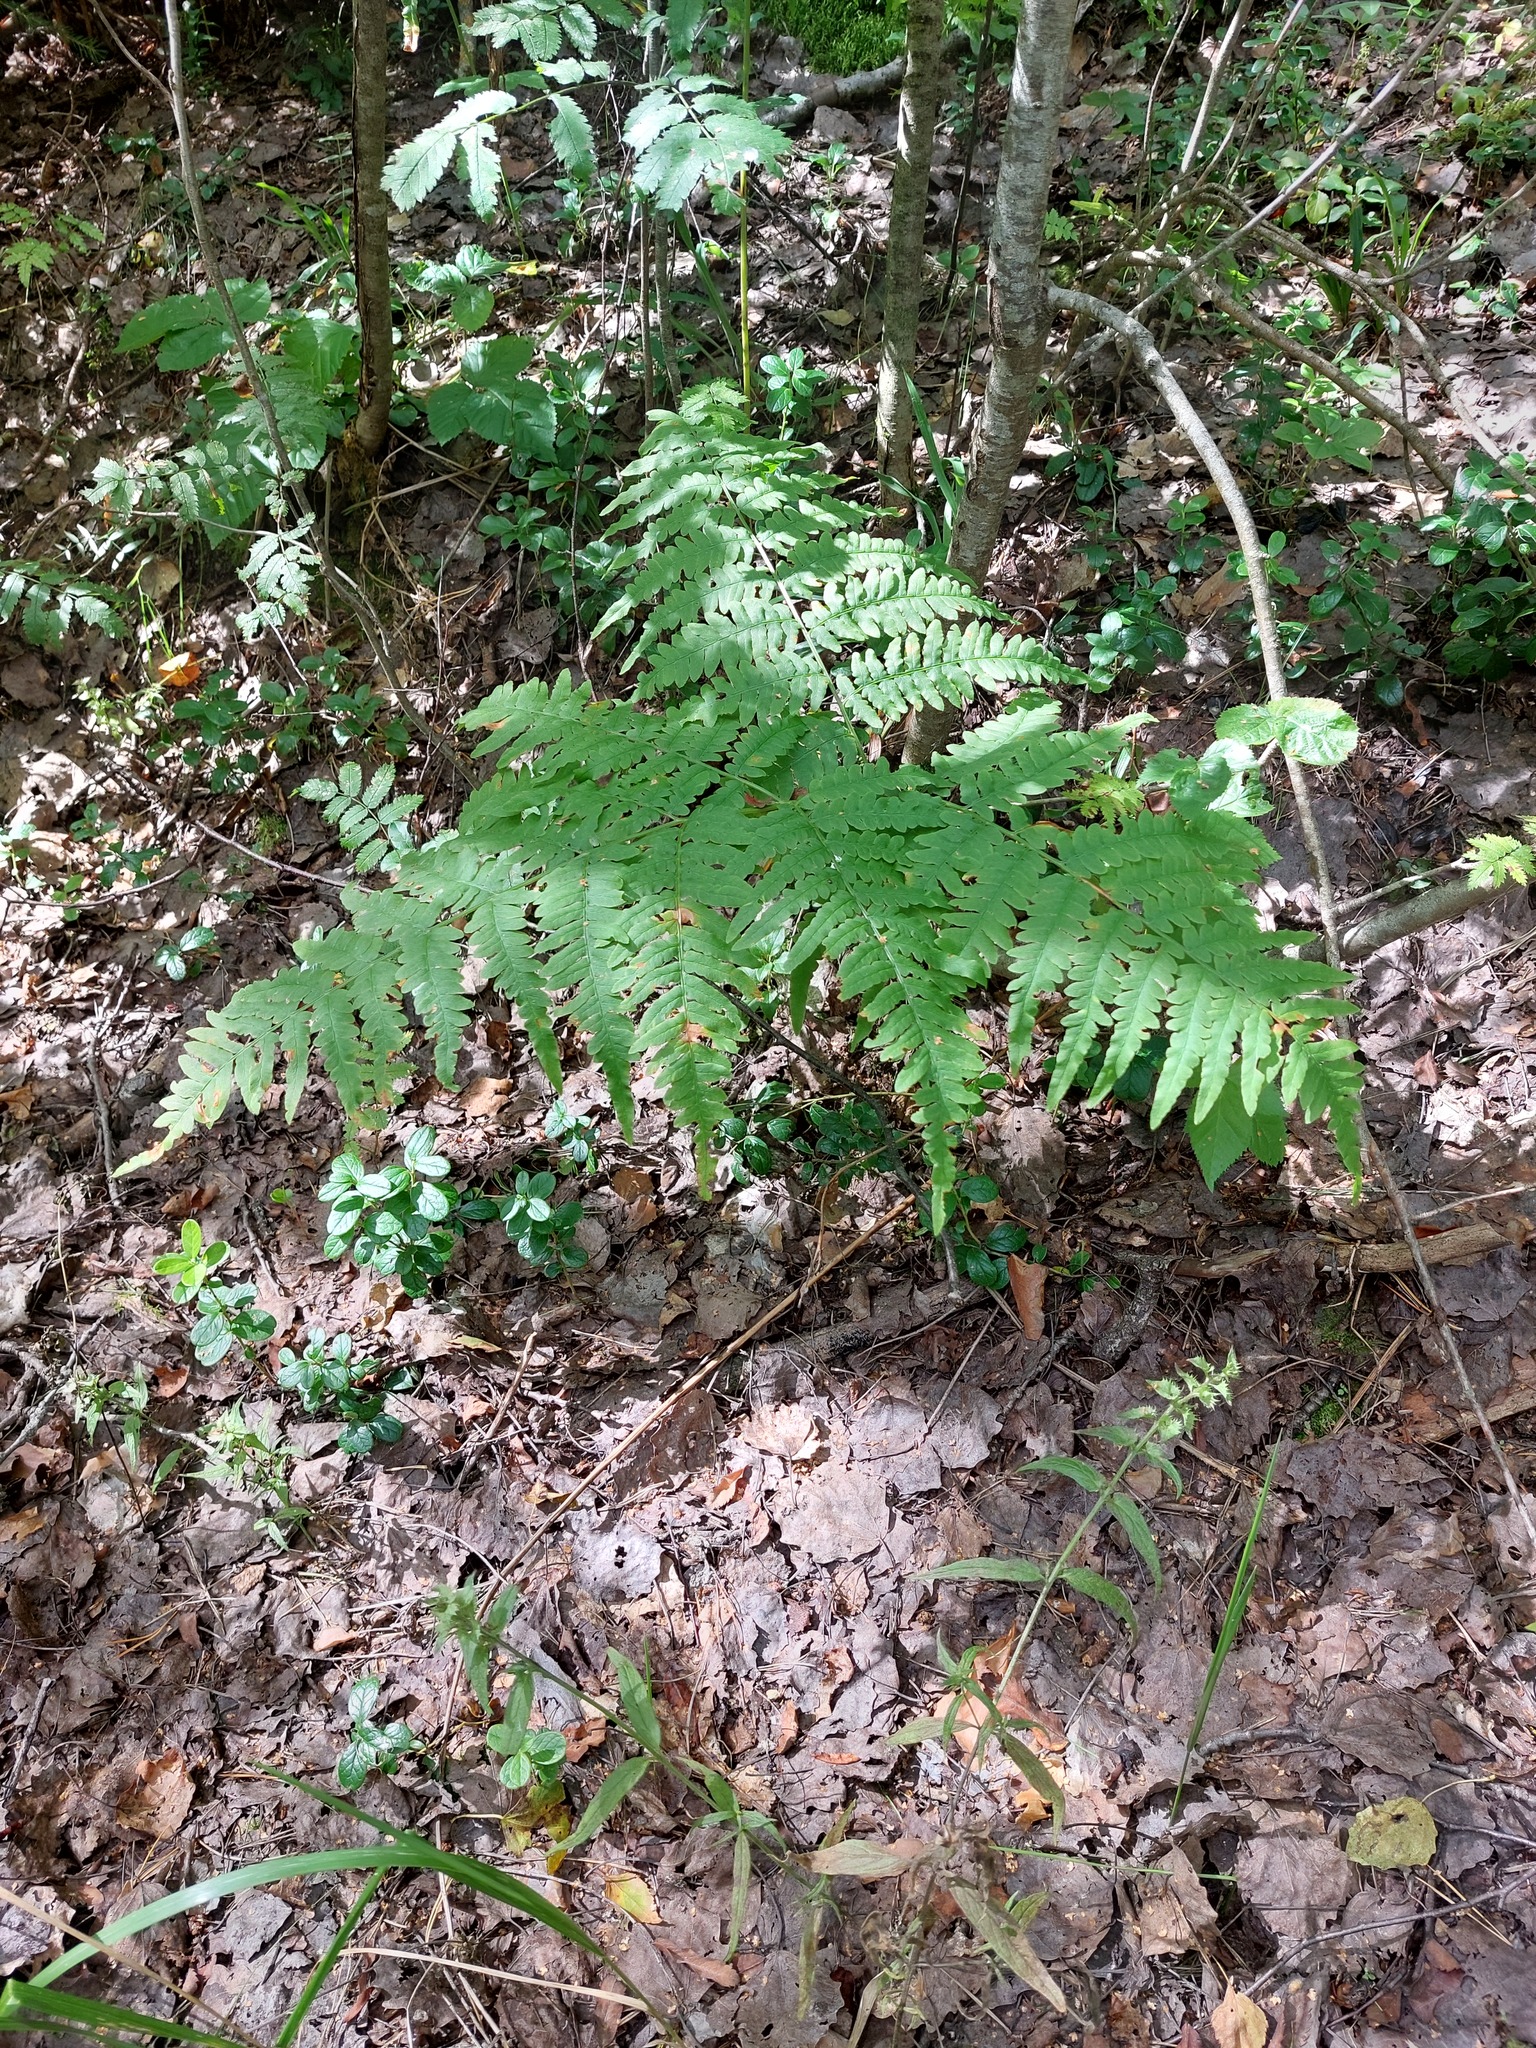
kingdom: Plantae
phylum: Tracheophyta
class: Polypodiopsida
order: Polypodiales
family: Dennstaedtiaceae
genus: Pteridium
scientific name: Pteridium aquilinum
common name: Bracken
